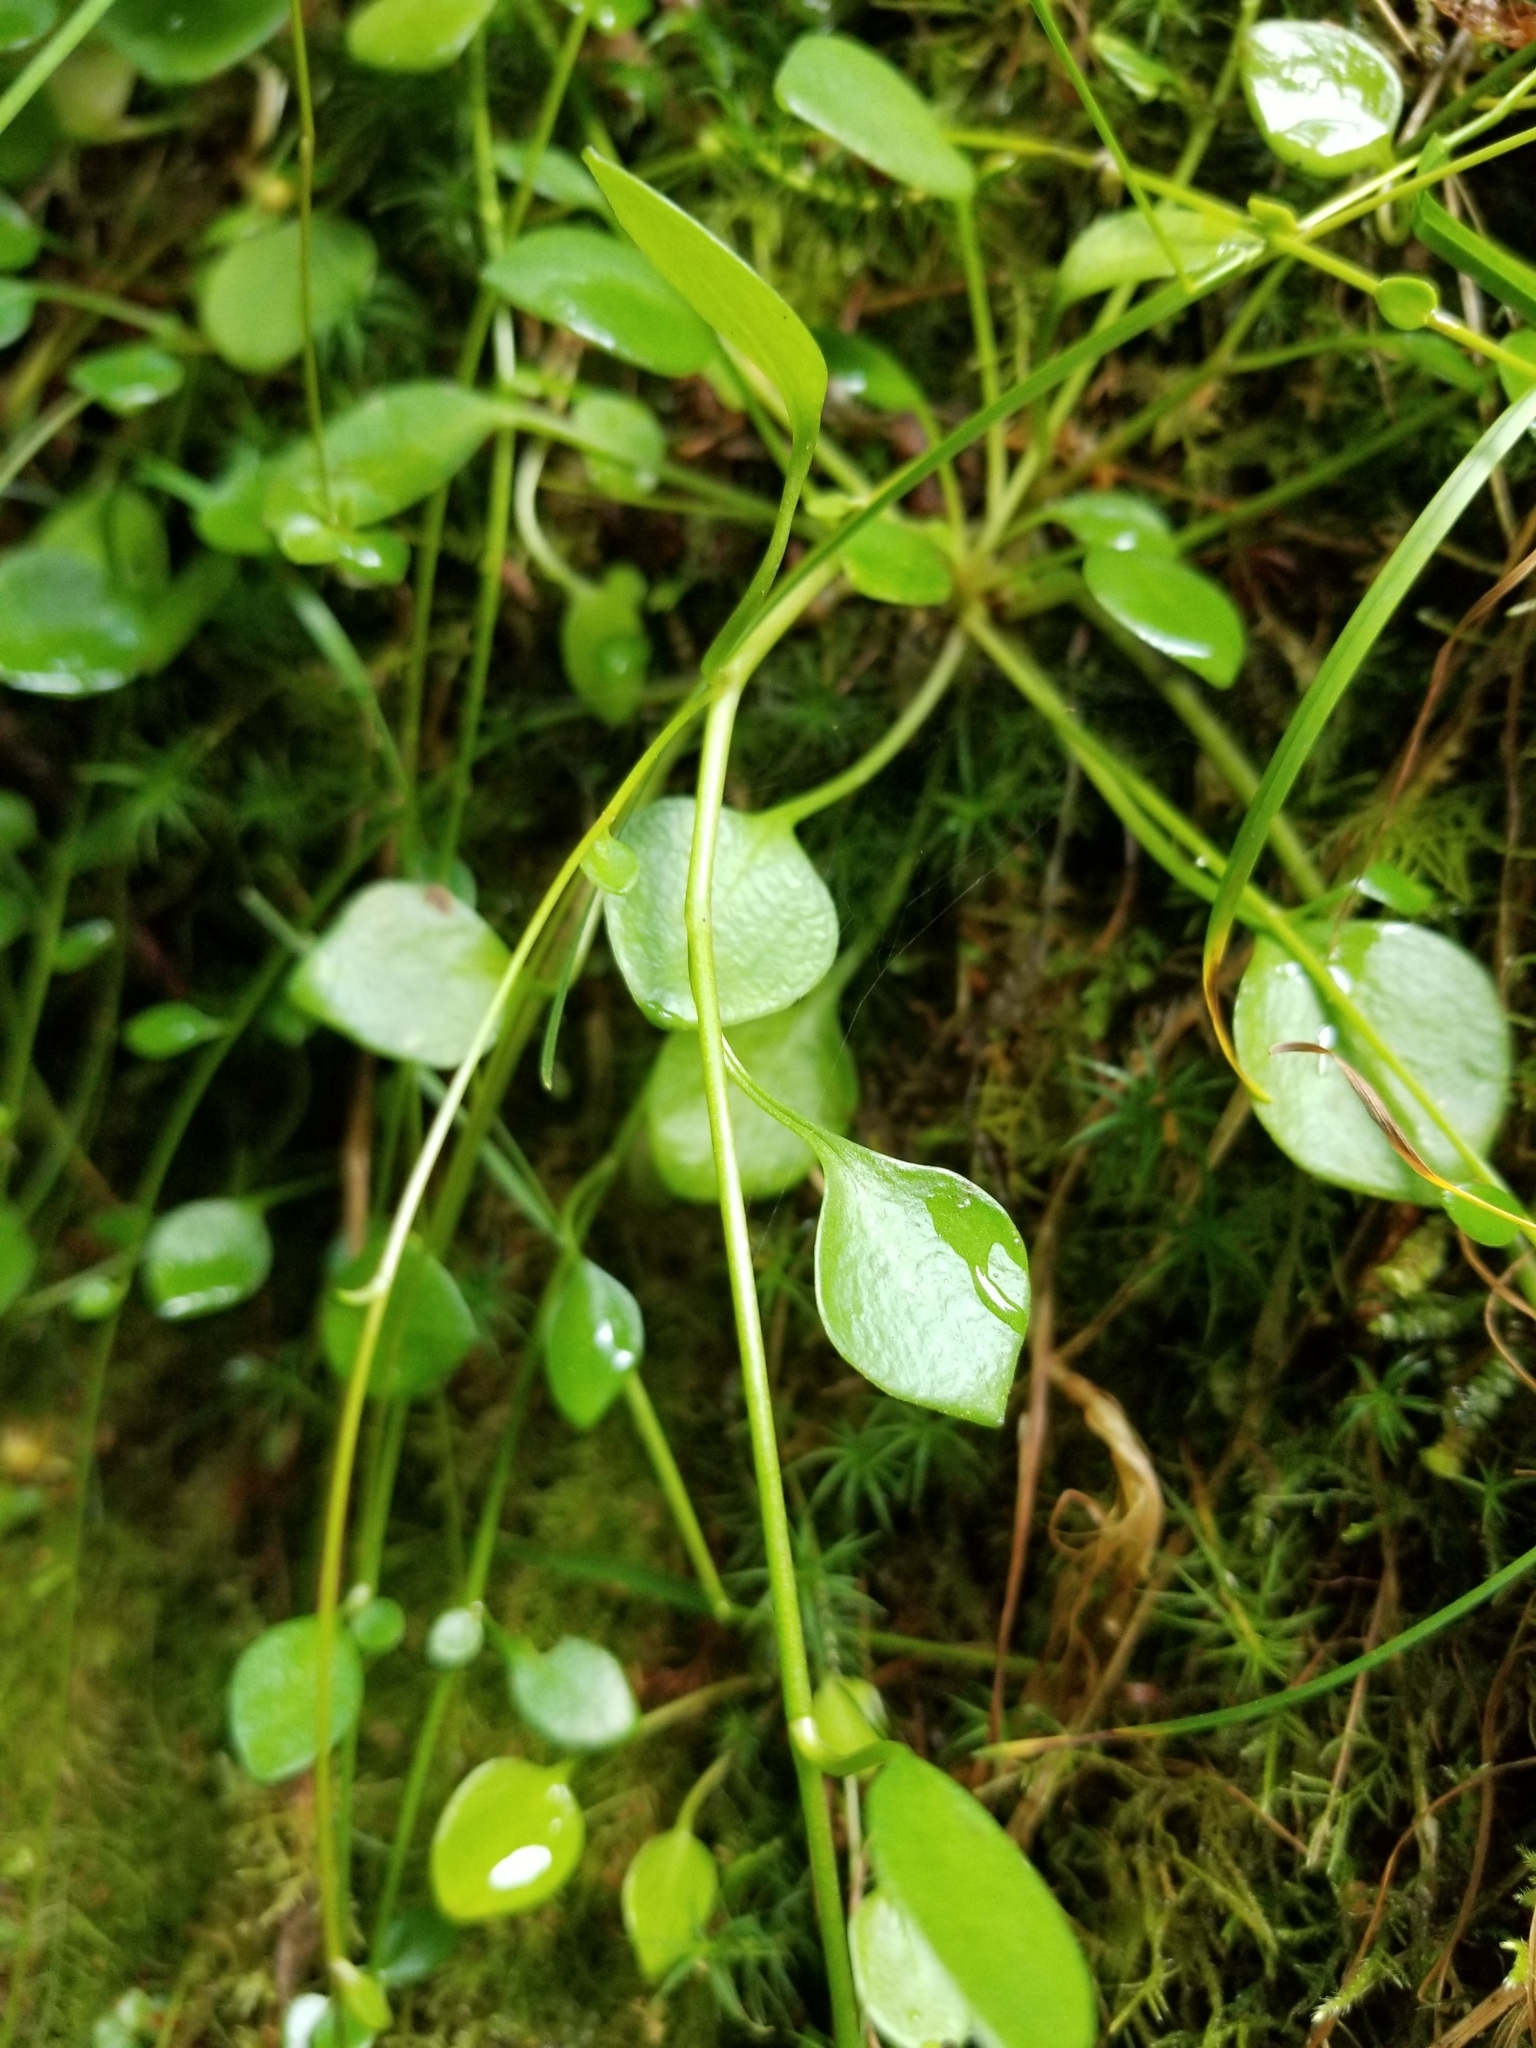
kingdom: Plantae
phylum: Tracheophyta
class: Magnoliopsida
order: Caryophyllales
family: Montiaceae
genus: Montia
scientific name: Montia parvifolia
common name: Small-leaved blinks
